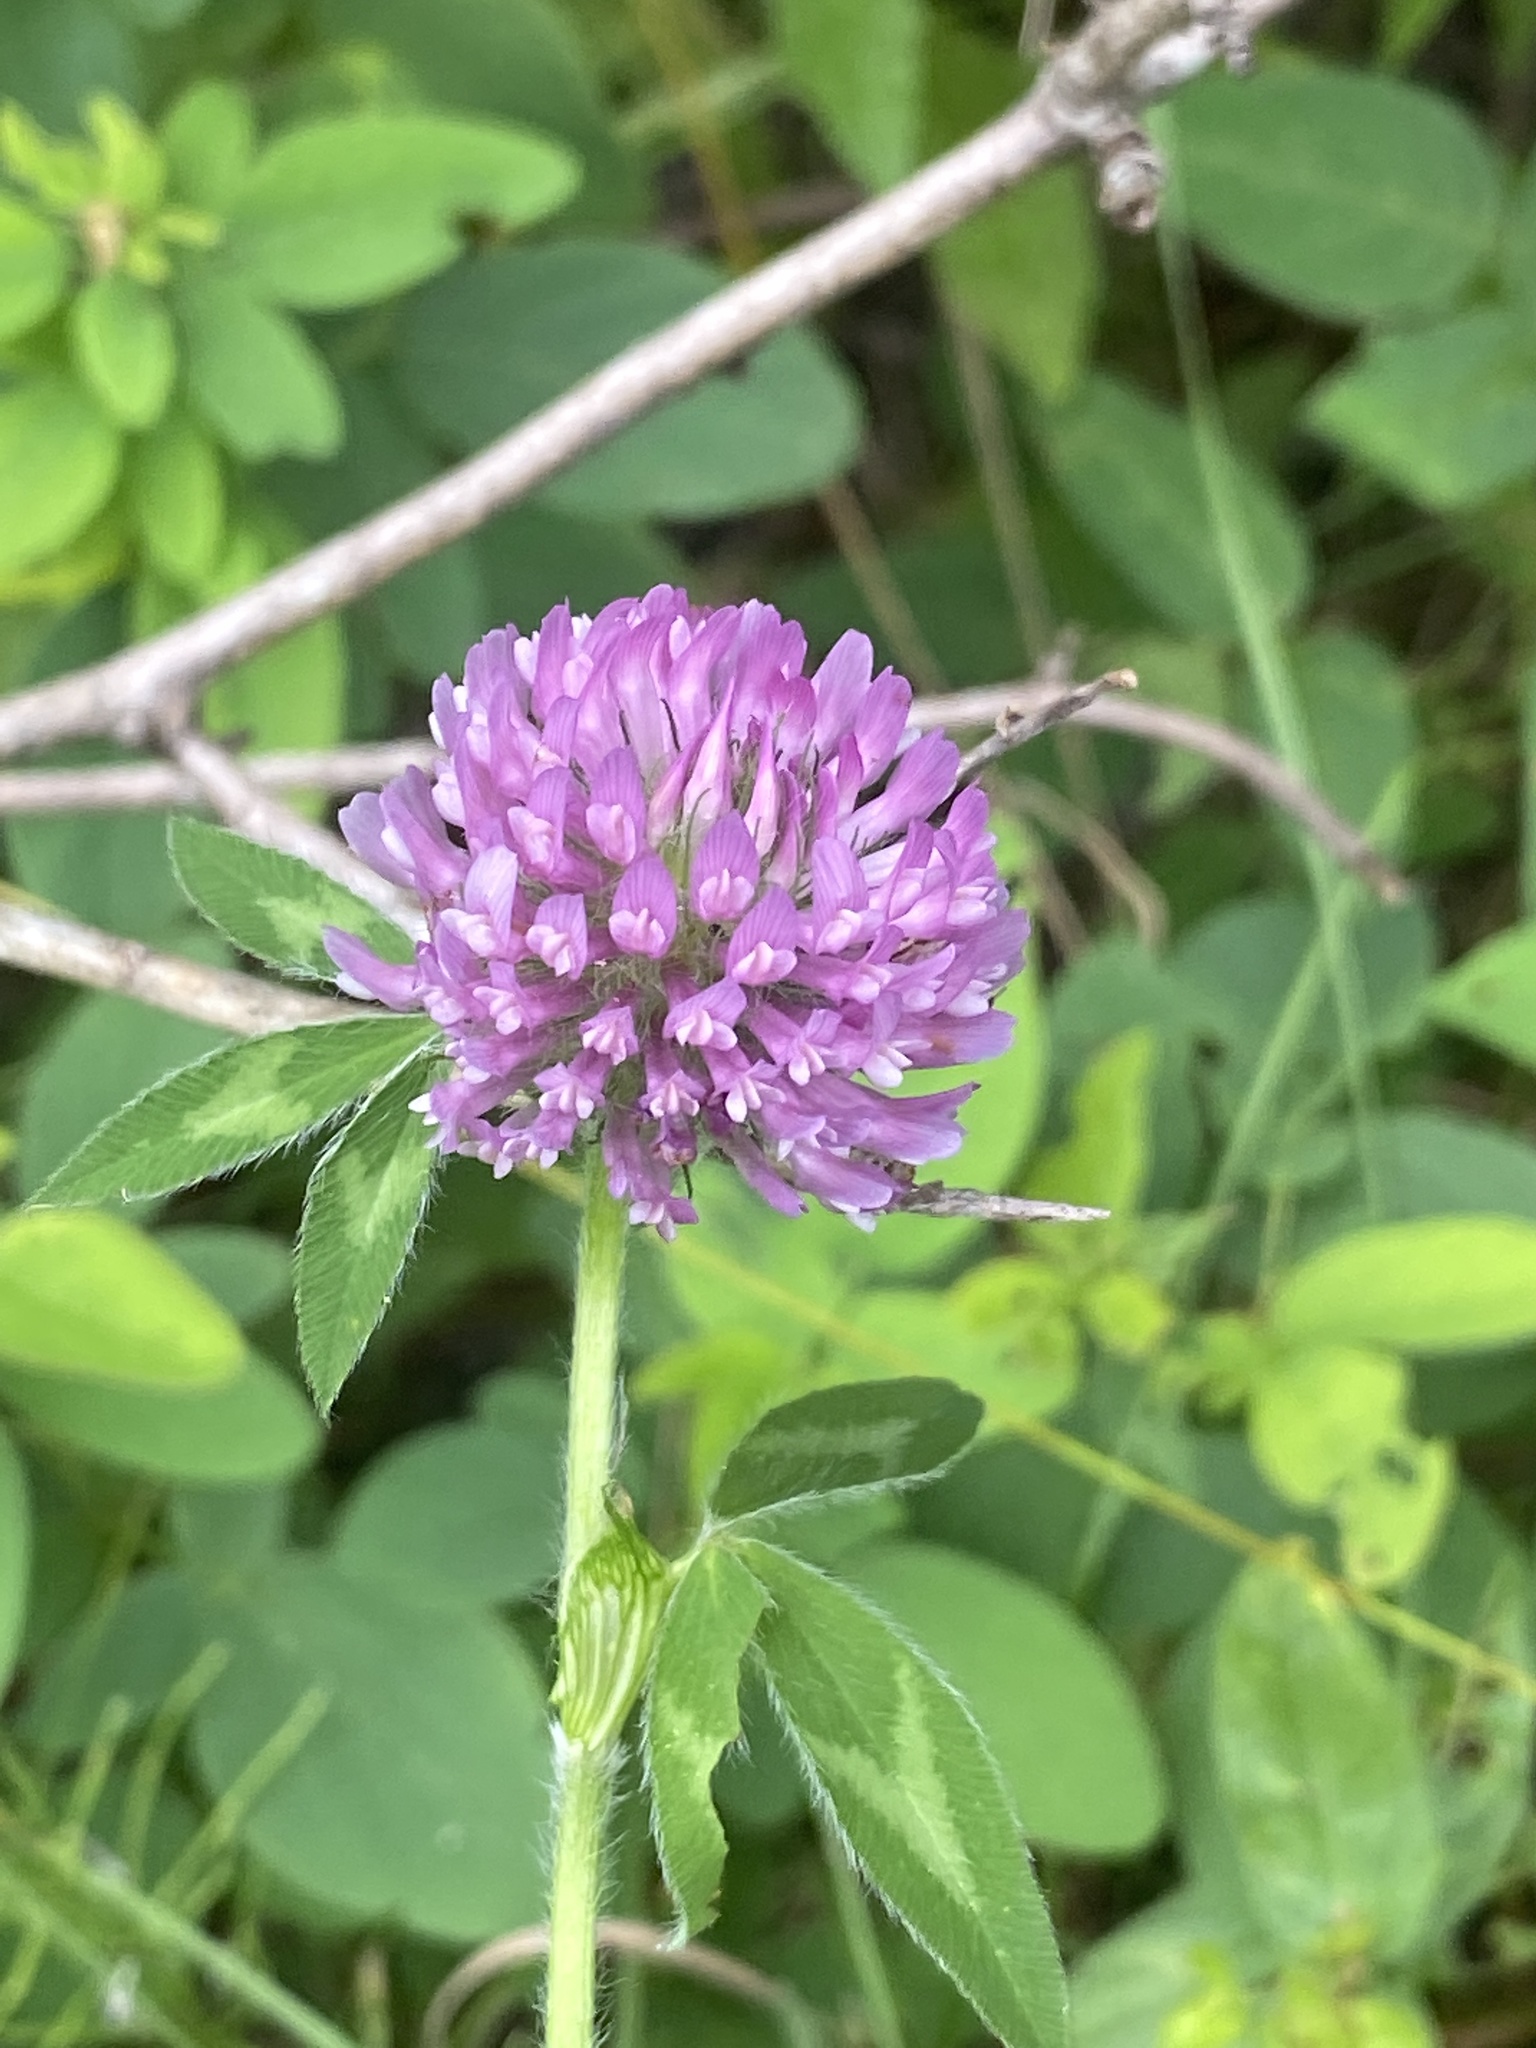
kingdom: Plantae
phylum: Tracheophyta
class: Magnoliopsida
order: Fabales
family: Fabaceae
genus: Trifolium
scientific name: Trifolium pratense
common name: Red clover
